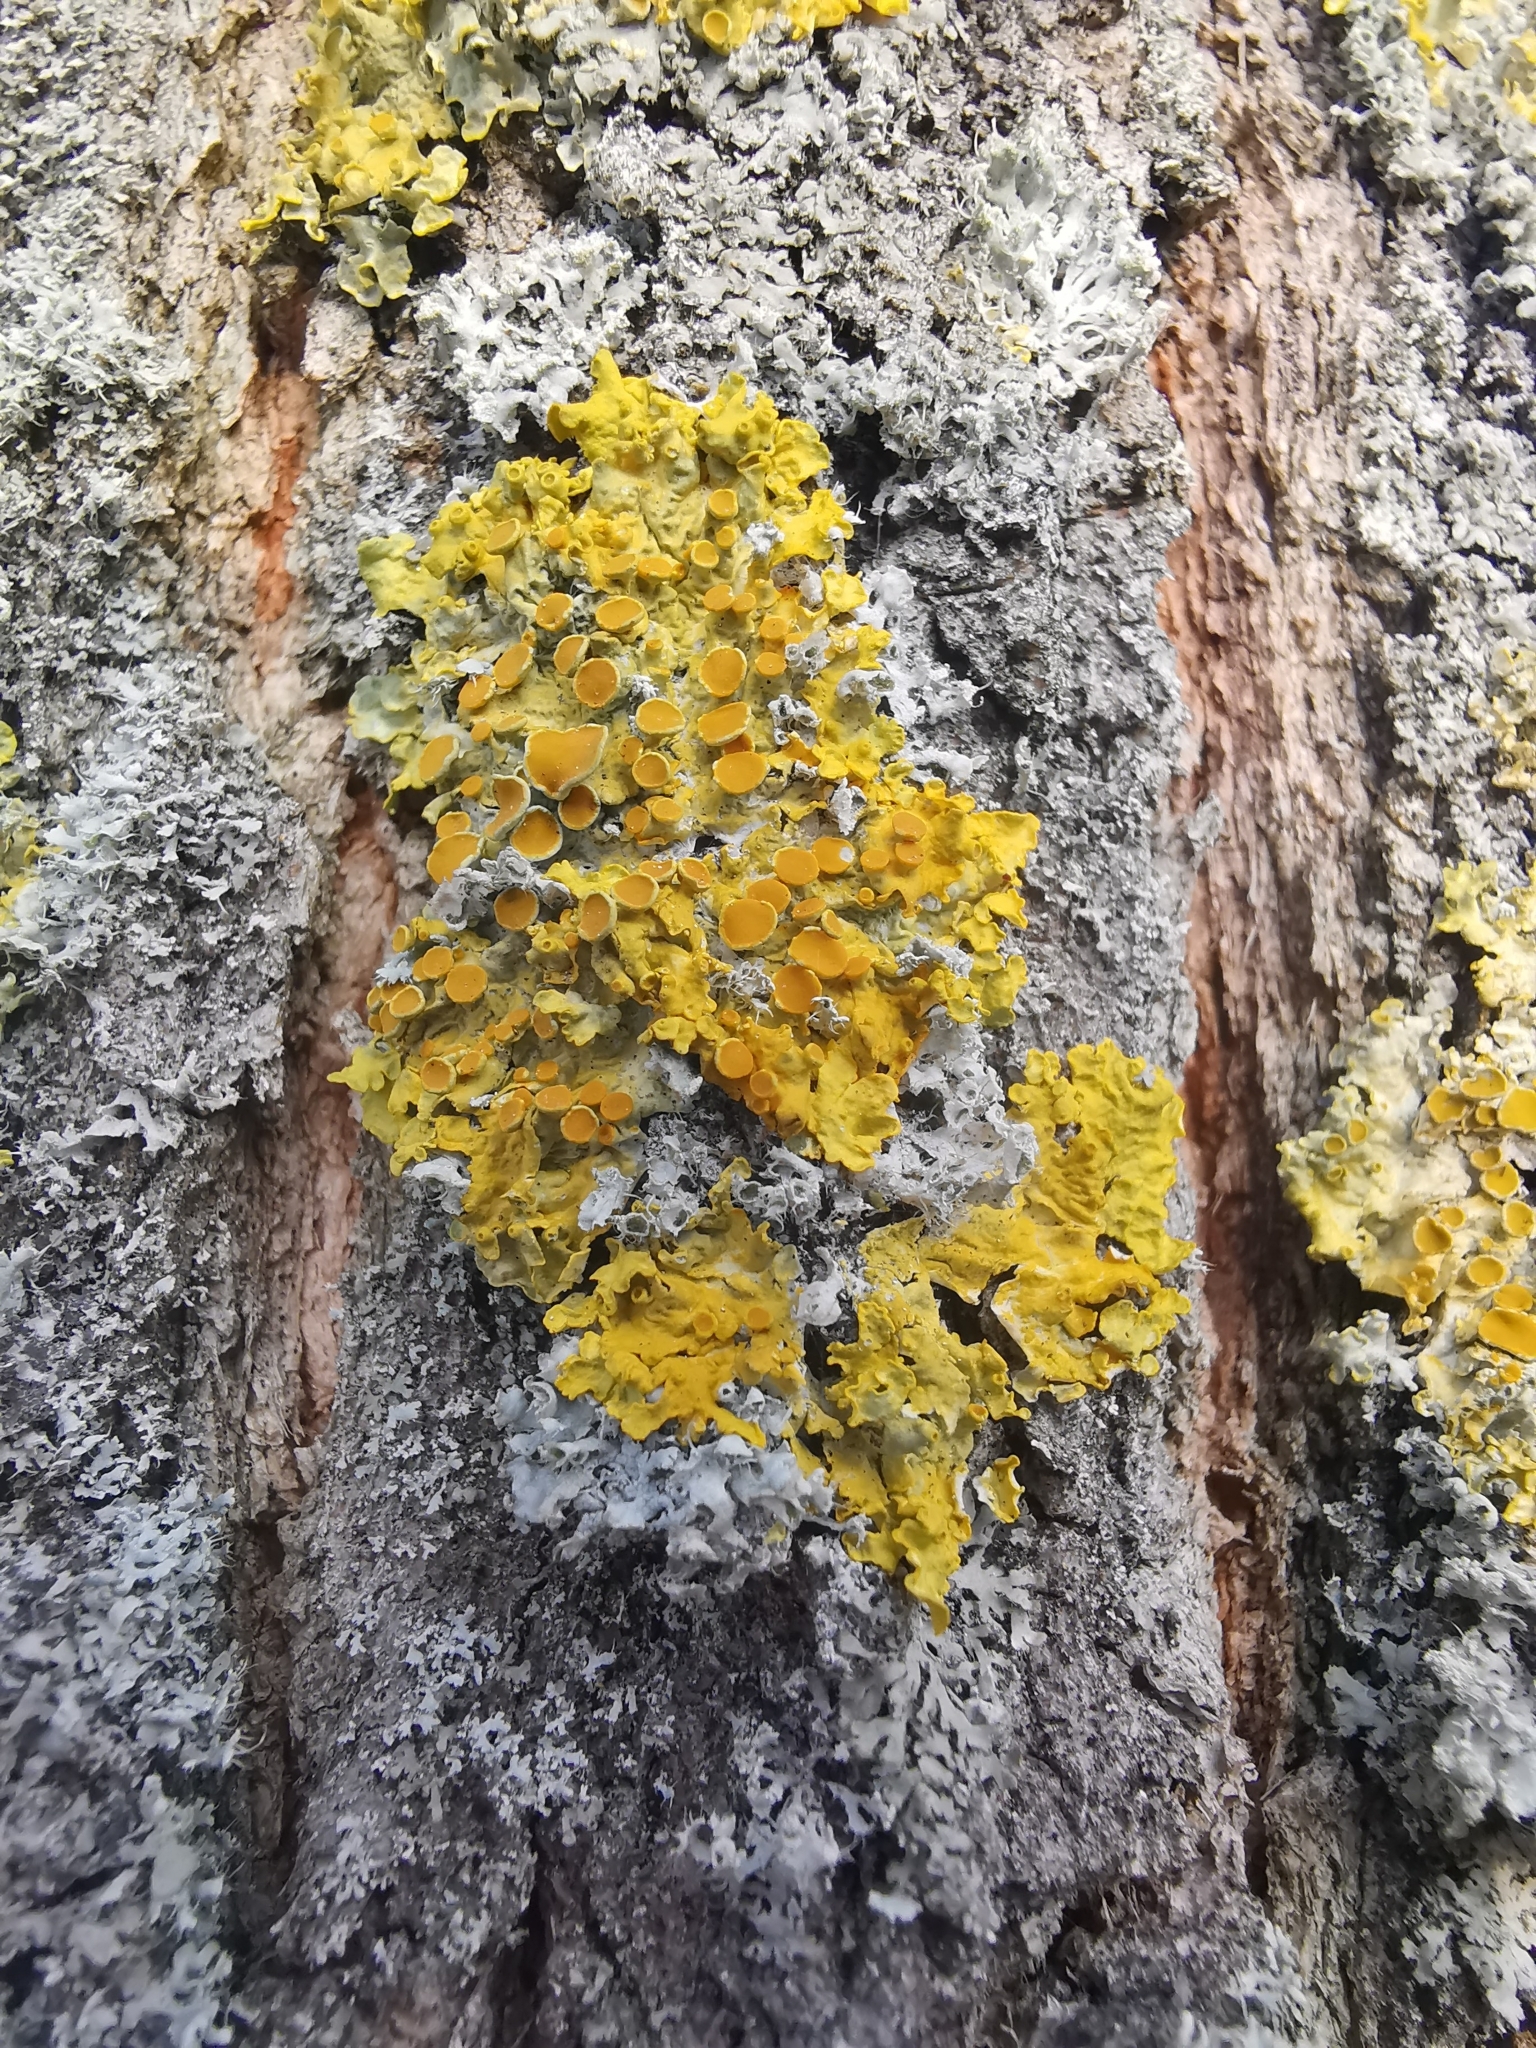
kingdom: Fungi
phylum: Ascomycota
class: Lecanoromycetes
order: Teloschistales
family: Teloschistaceae
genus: Xanthoria
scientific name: Xanthoria parietina
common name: Common orange lichen
